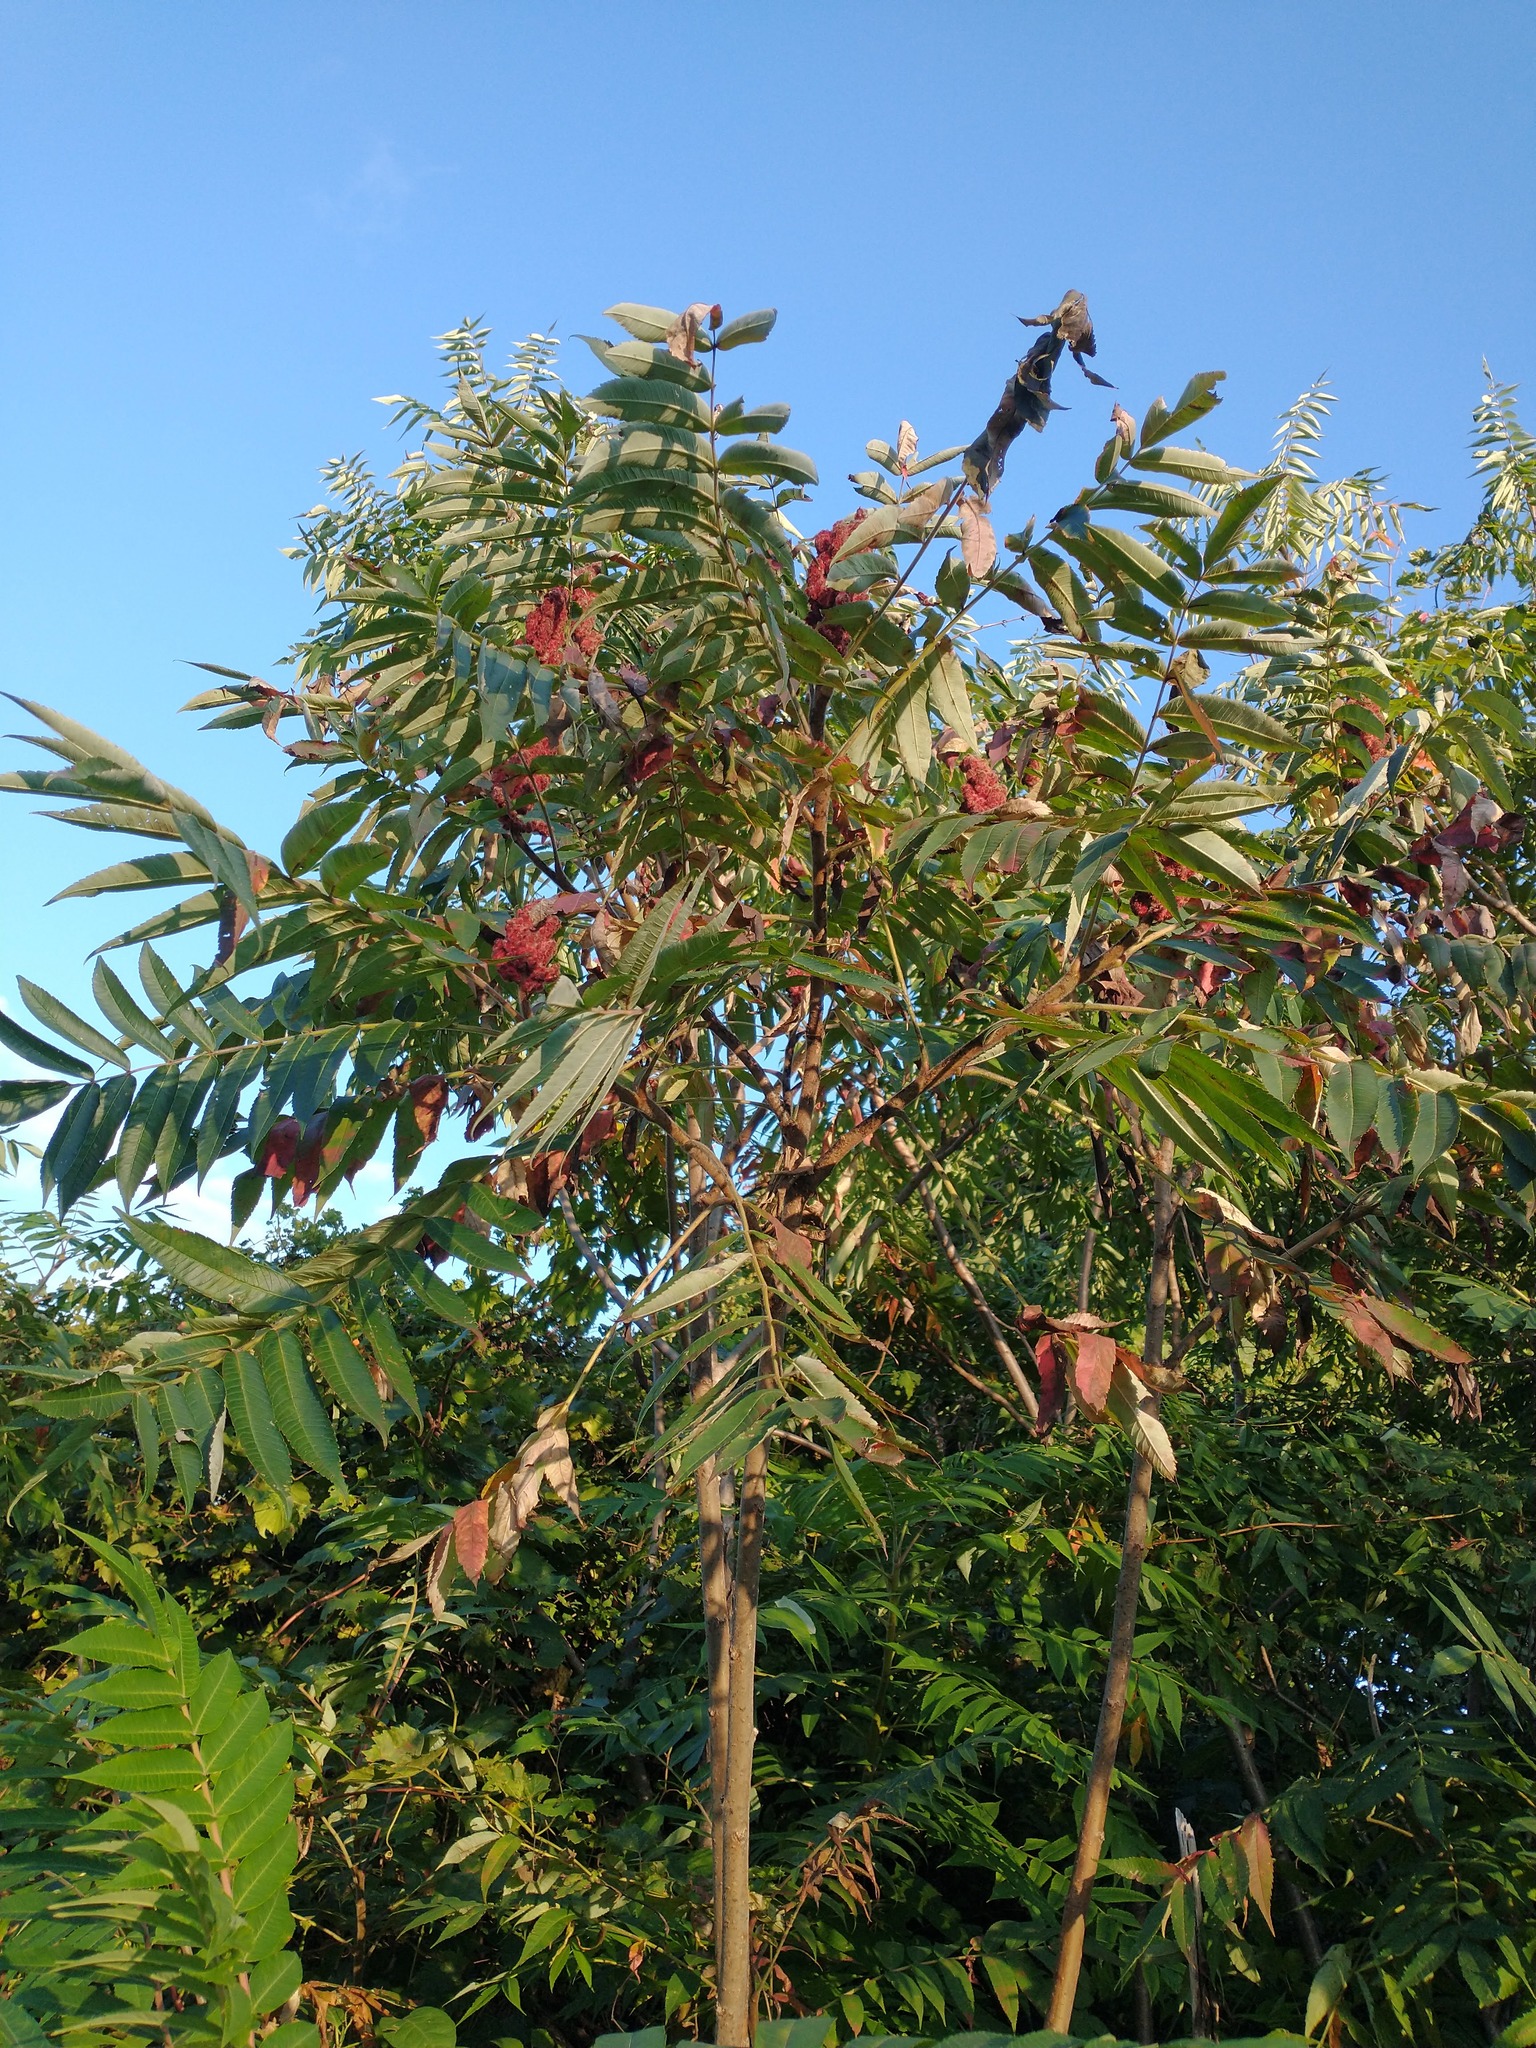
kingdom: Plantae
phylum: Tracheophyta
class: Magnoliopsida
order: Sapindales
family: Anacardiaceae
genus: Rhus
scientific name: Rhus typhina
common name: Staghorn sumac
